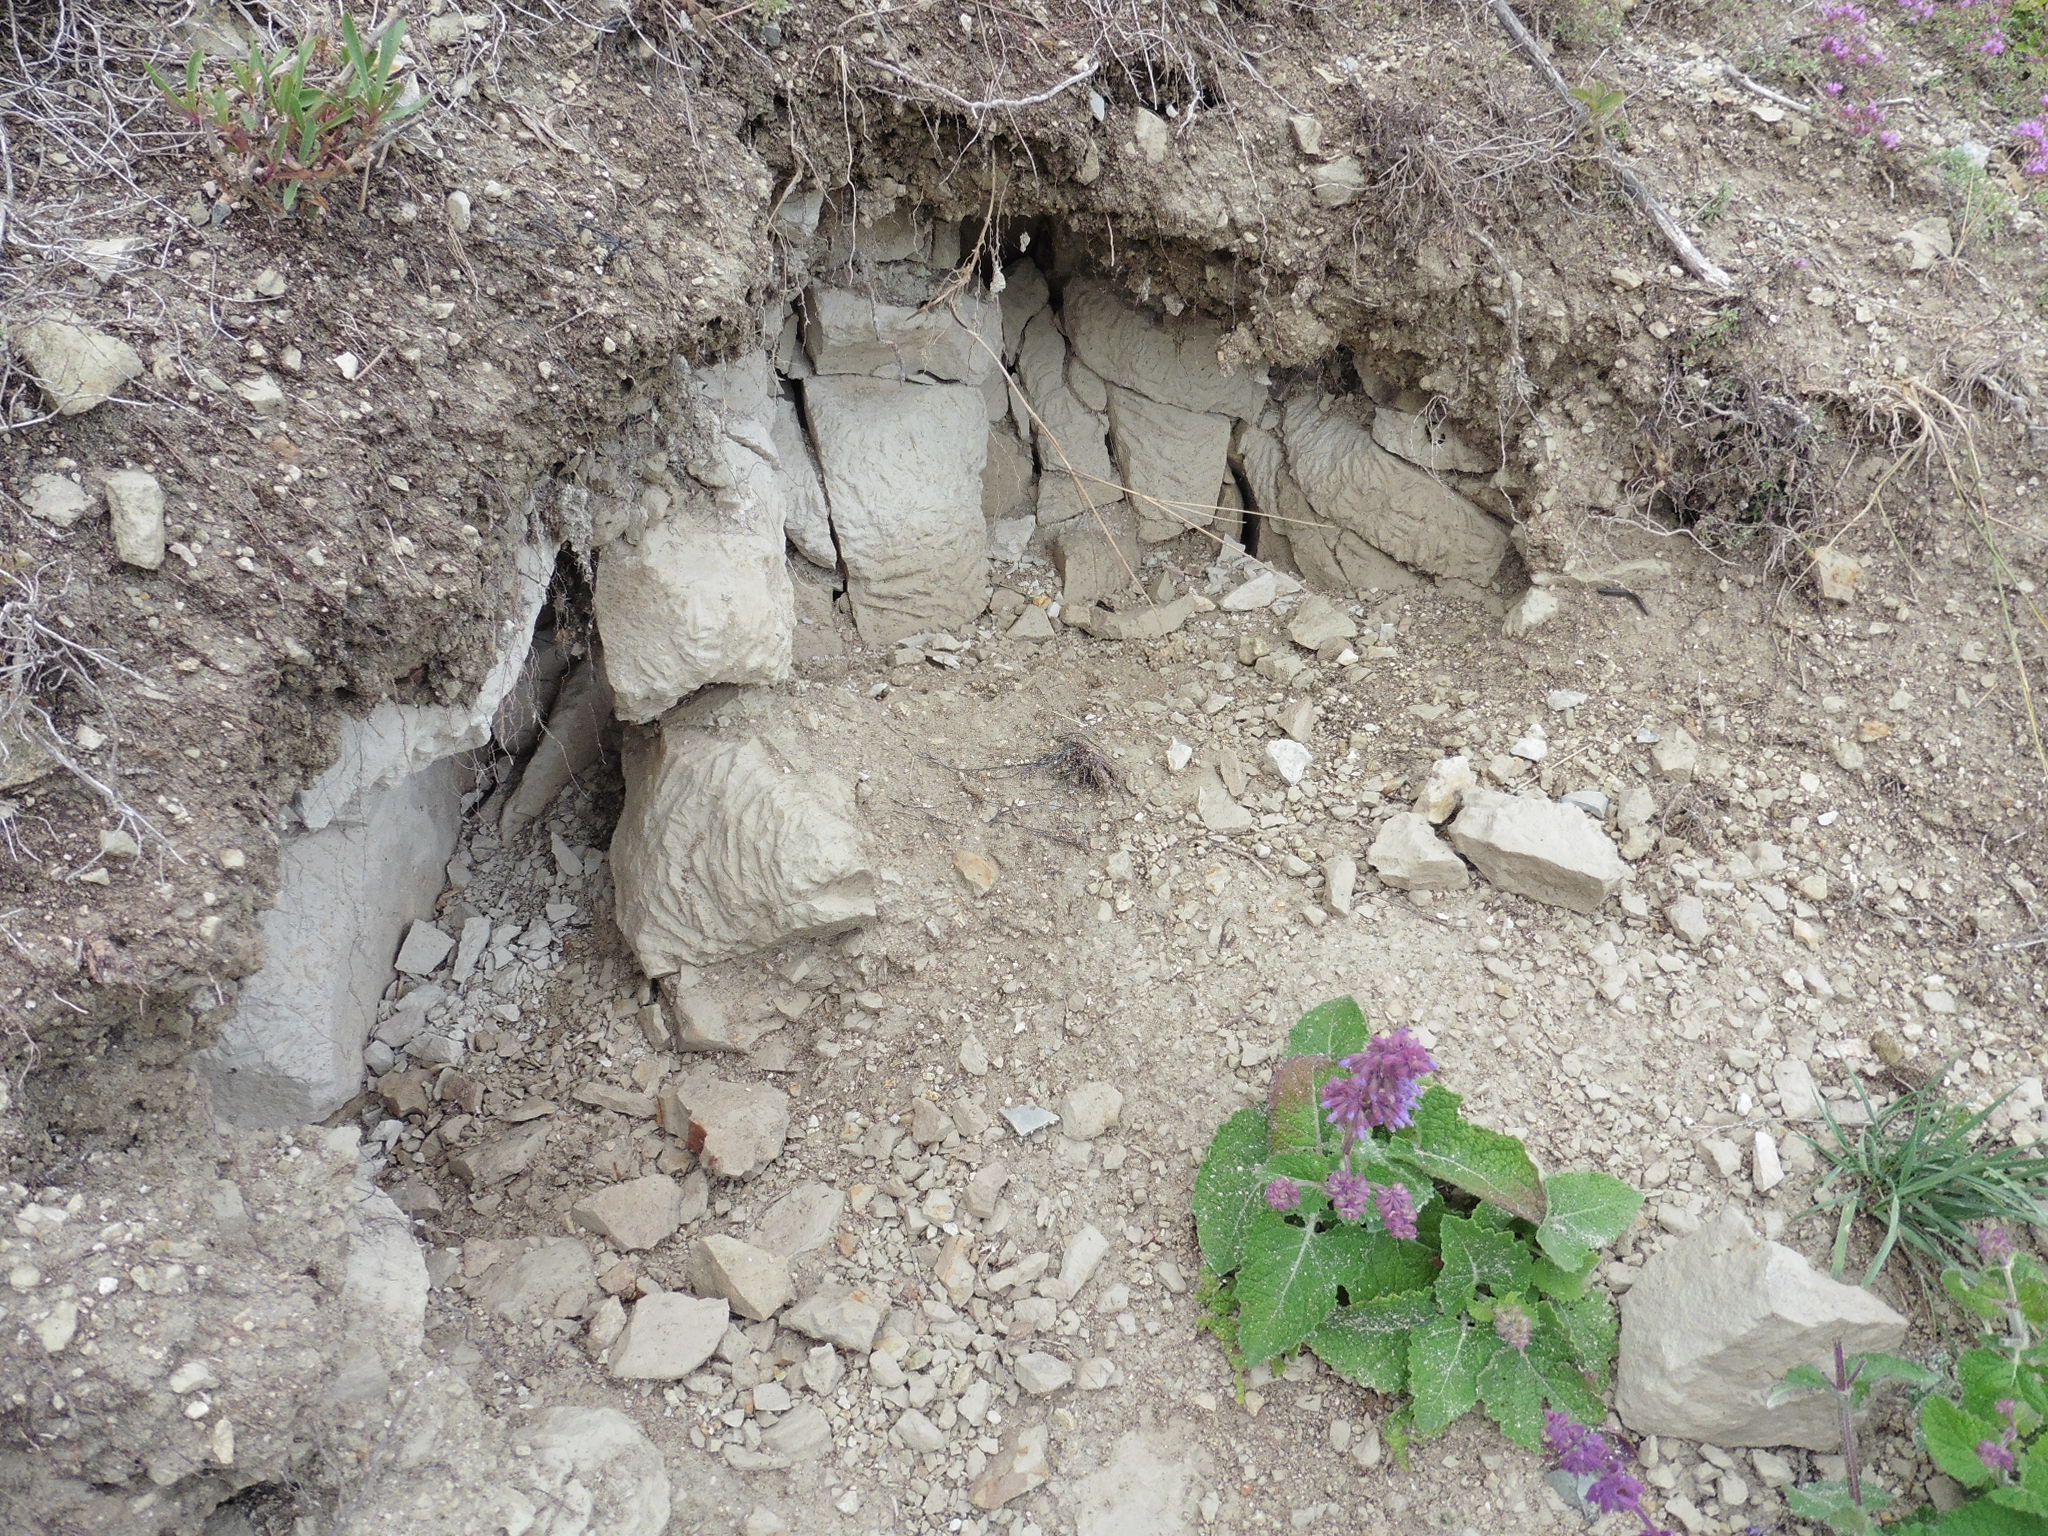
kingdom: Plantae
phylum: Tracheophyta
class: Magnoliopsida
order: Lamiales
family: Lamiaceae
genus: Salvia
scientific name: Salvia verticillata
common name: Whorled clary
